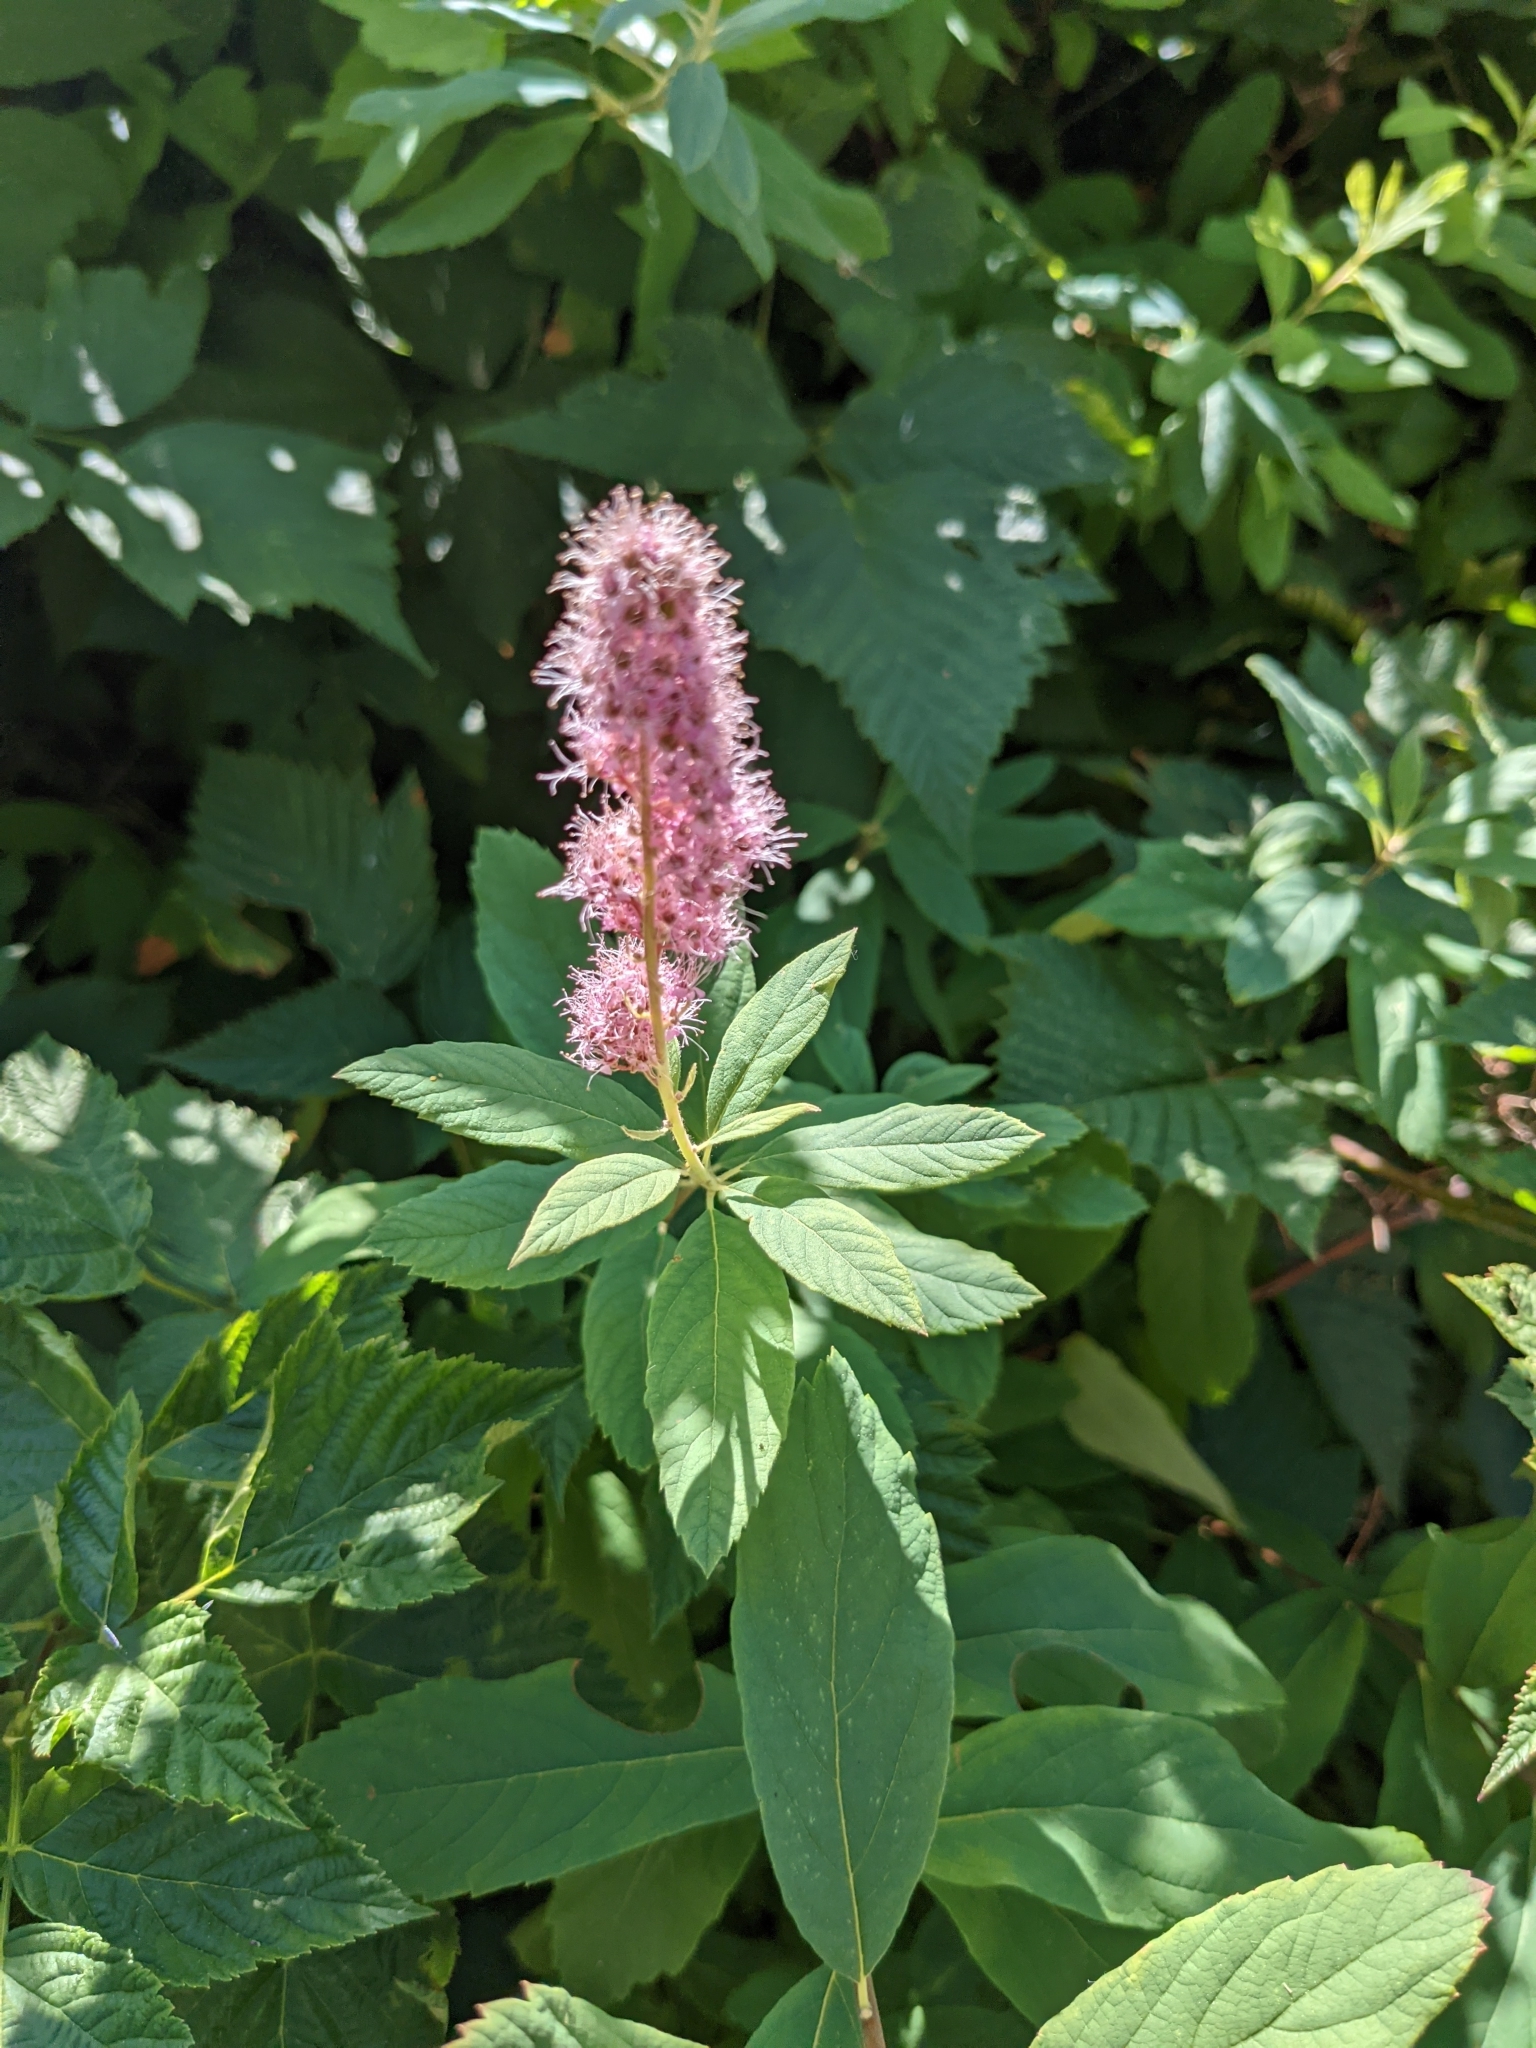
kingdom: Plantae
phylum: Tracheophyta
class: Magnoliopsida
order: Rosales
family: Rosaceae
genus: Spiraea
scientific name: Spiraea douglasii
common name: Steeplebush
